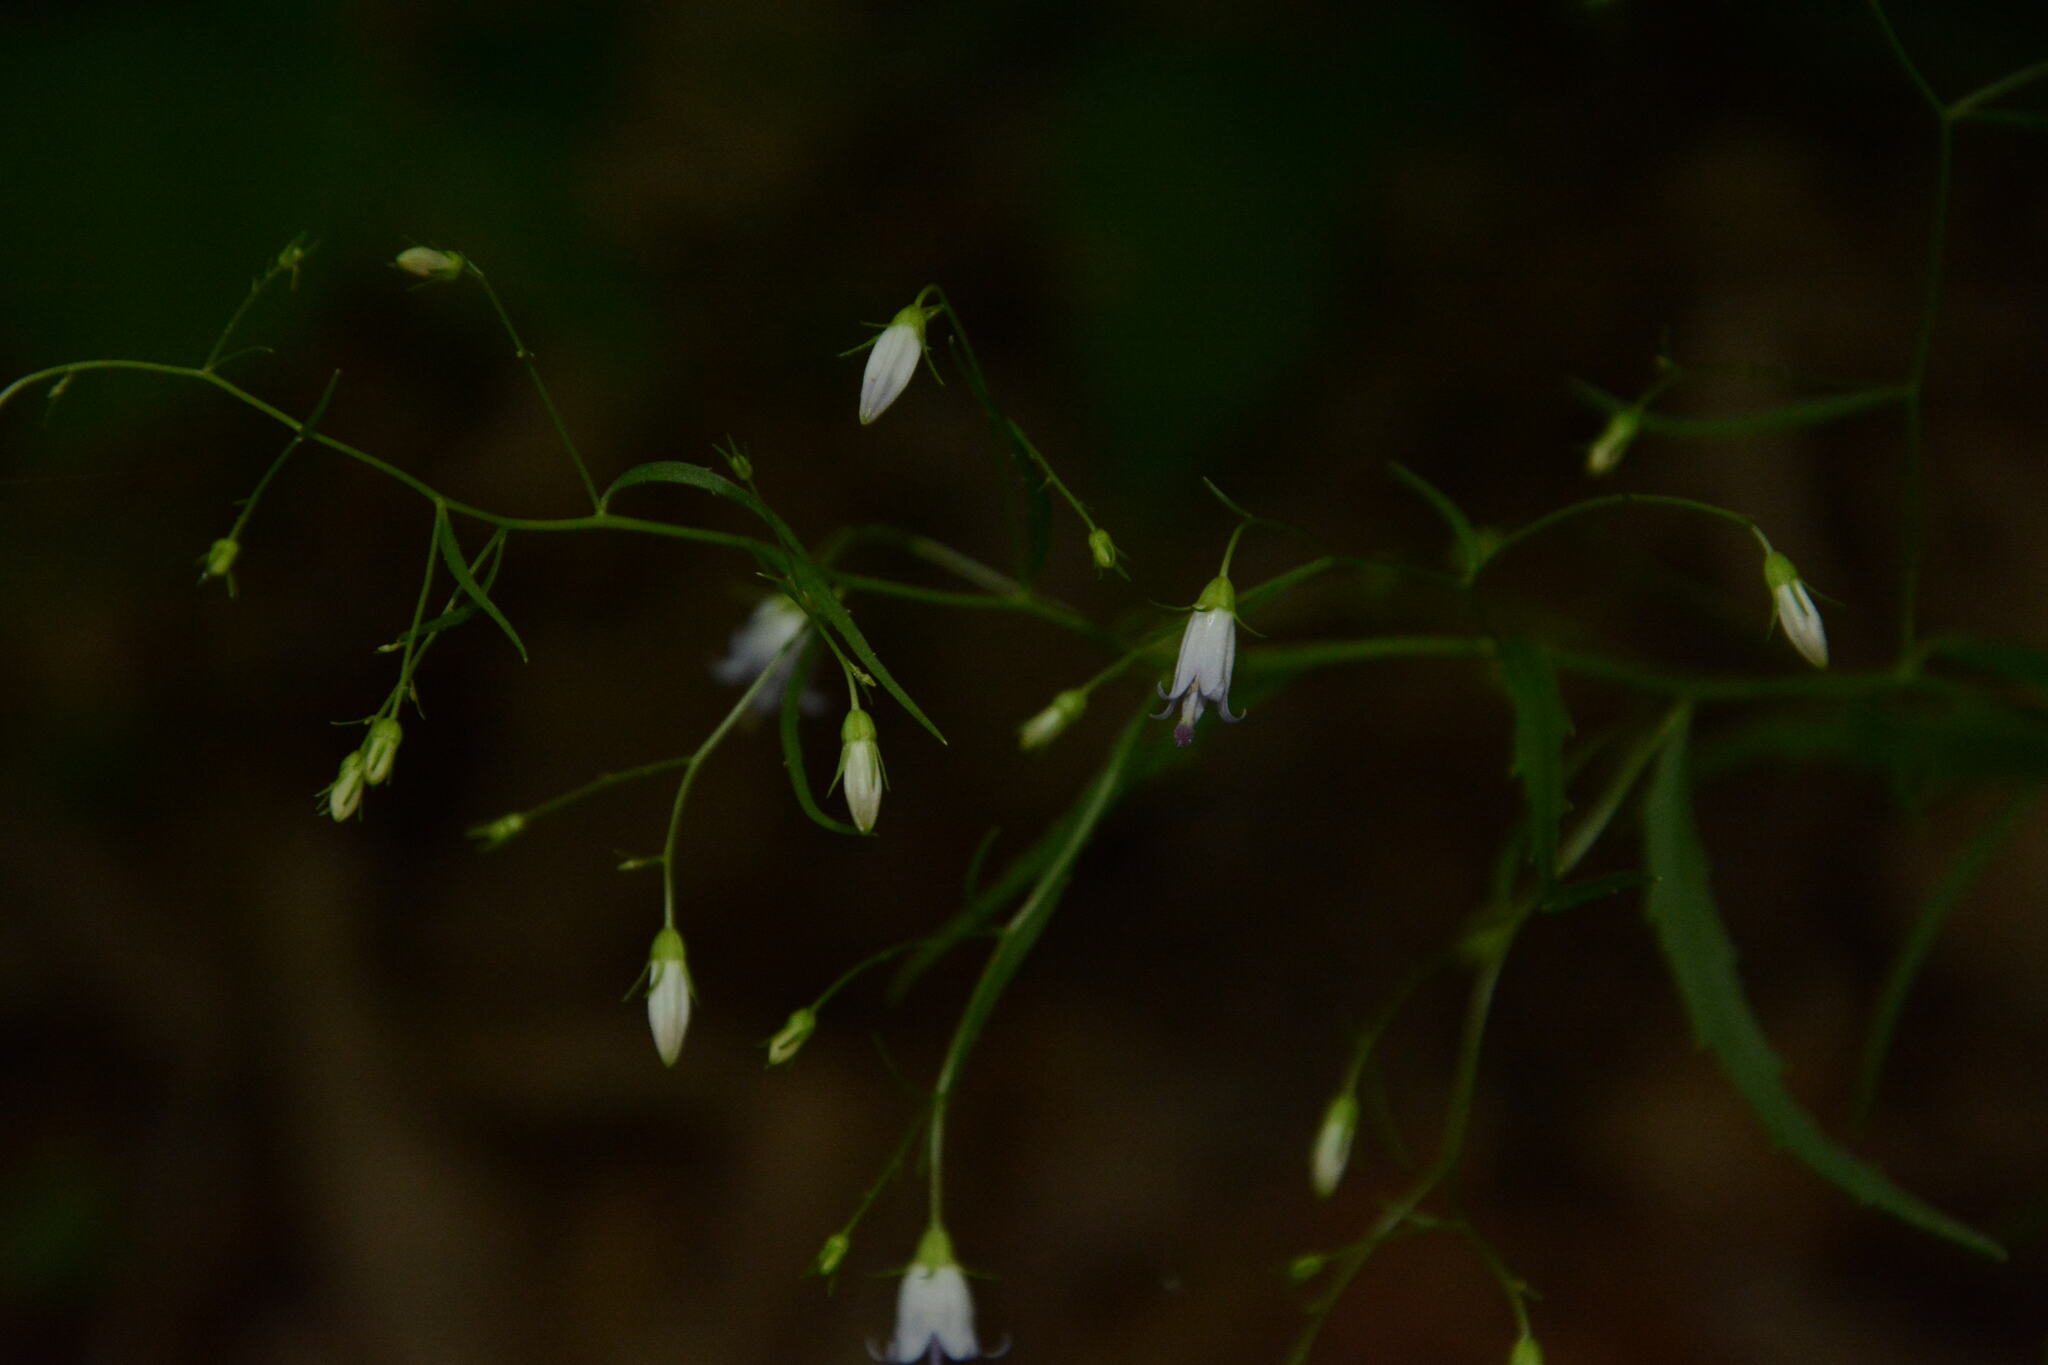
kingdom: Plantae
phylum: Tracheophyta
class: Magnoliopsida
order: Asterales
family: Campanulaceae
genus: Campanula
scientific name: Campanula divaricata
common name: Appalachian bellflower
